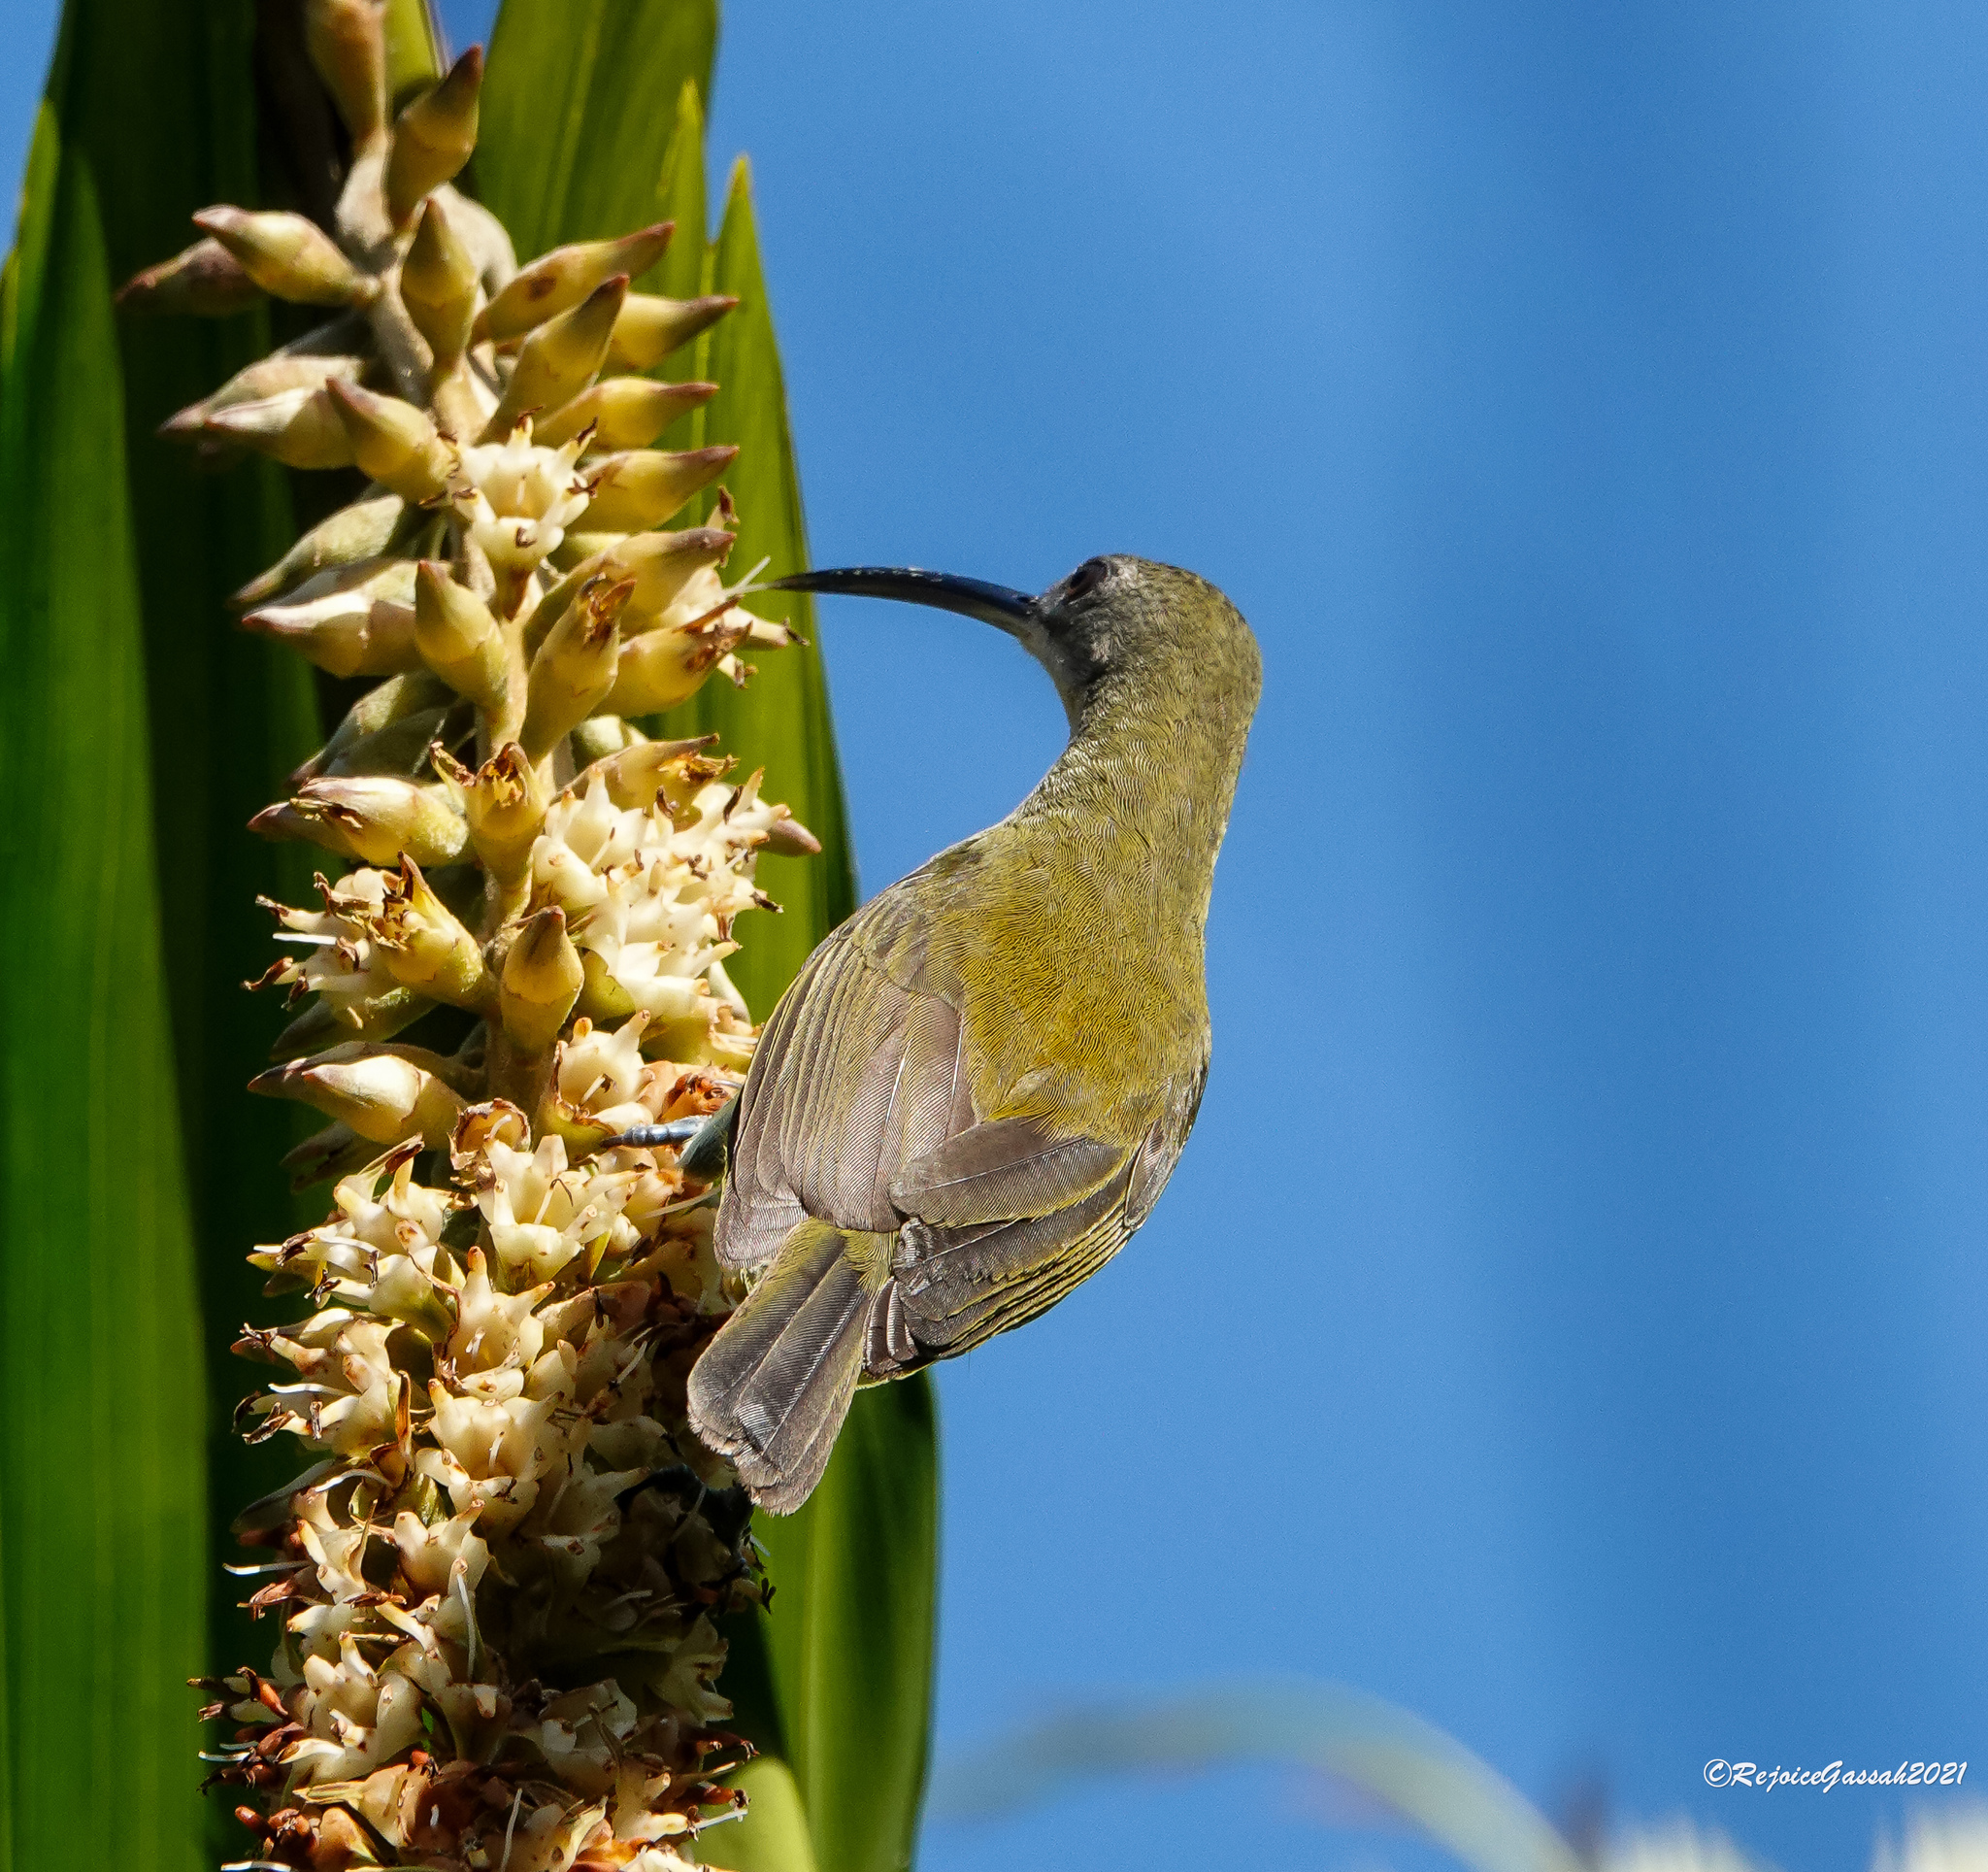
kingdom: Animalia
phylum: Chordata
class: Aves
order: Passeriformes
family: Nectariniidae
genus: Arachnothera
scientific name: Arachnothera longirostra
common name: Little spiderhunter
